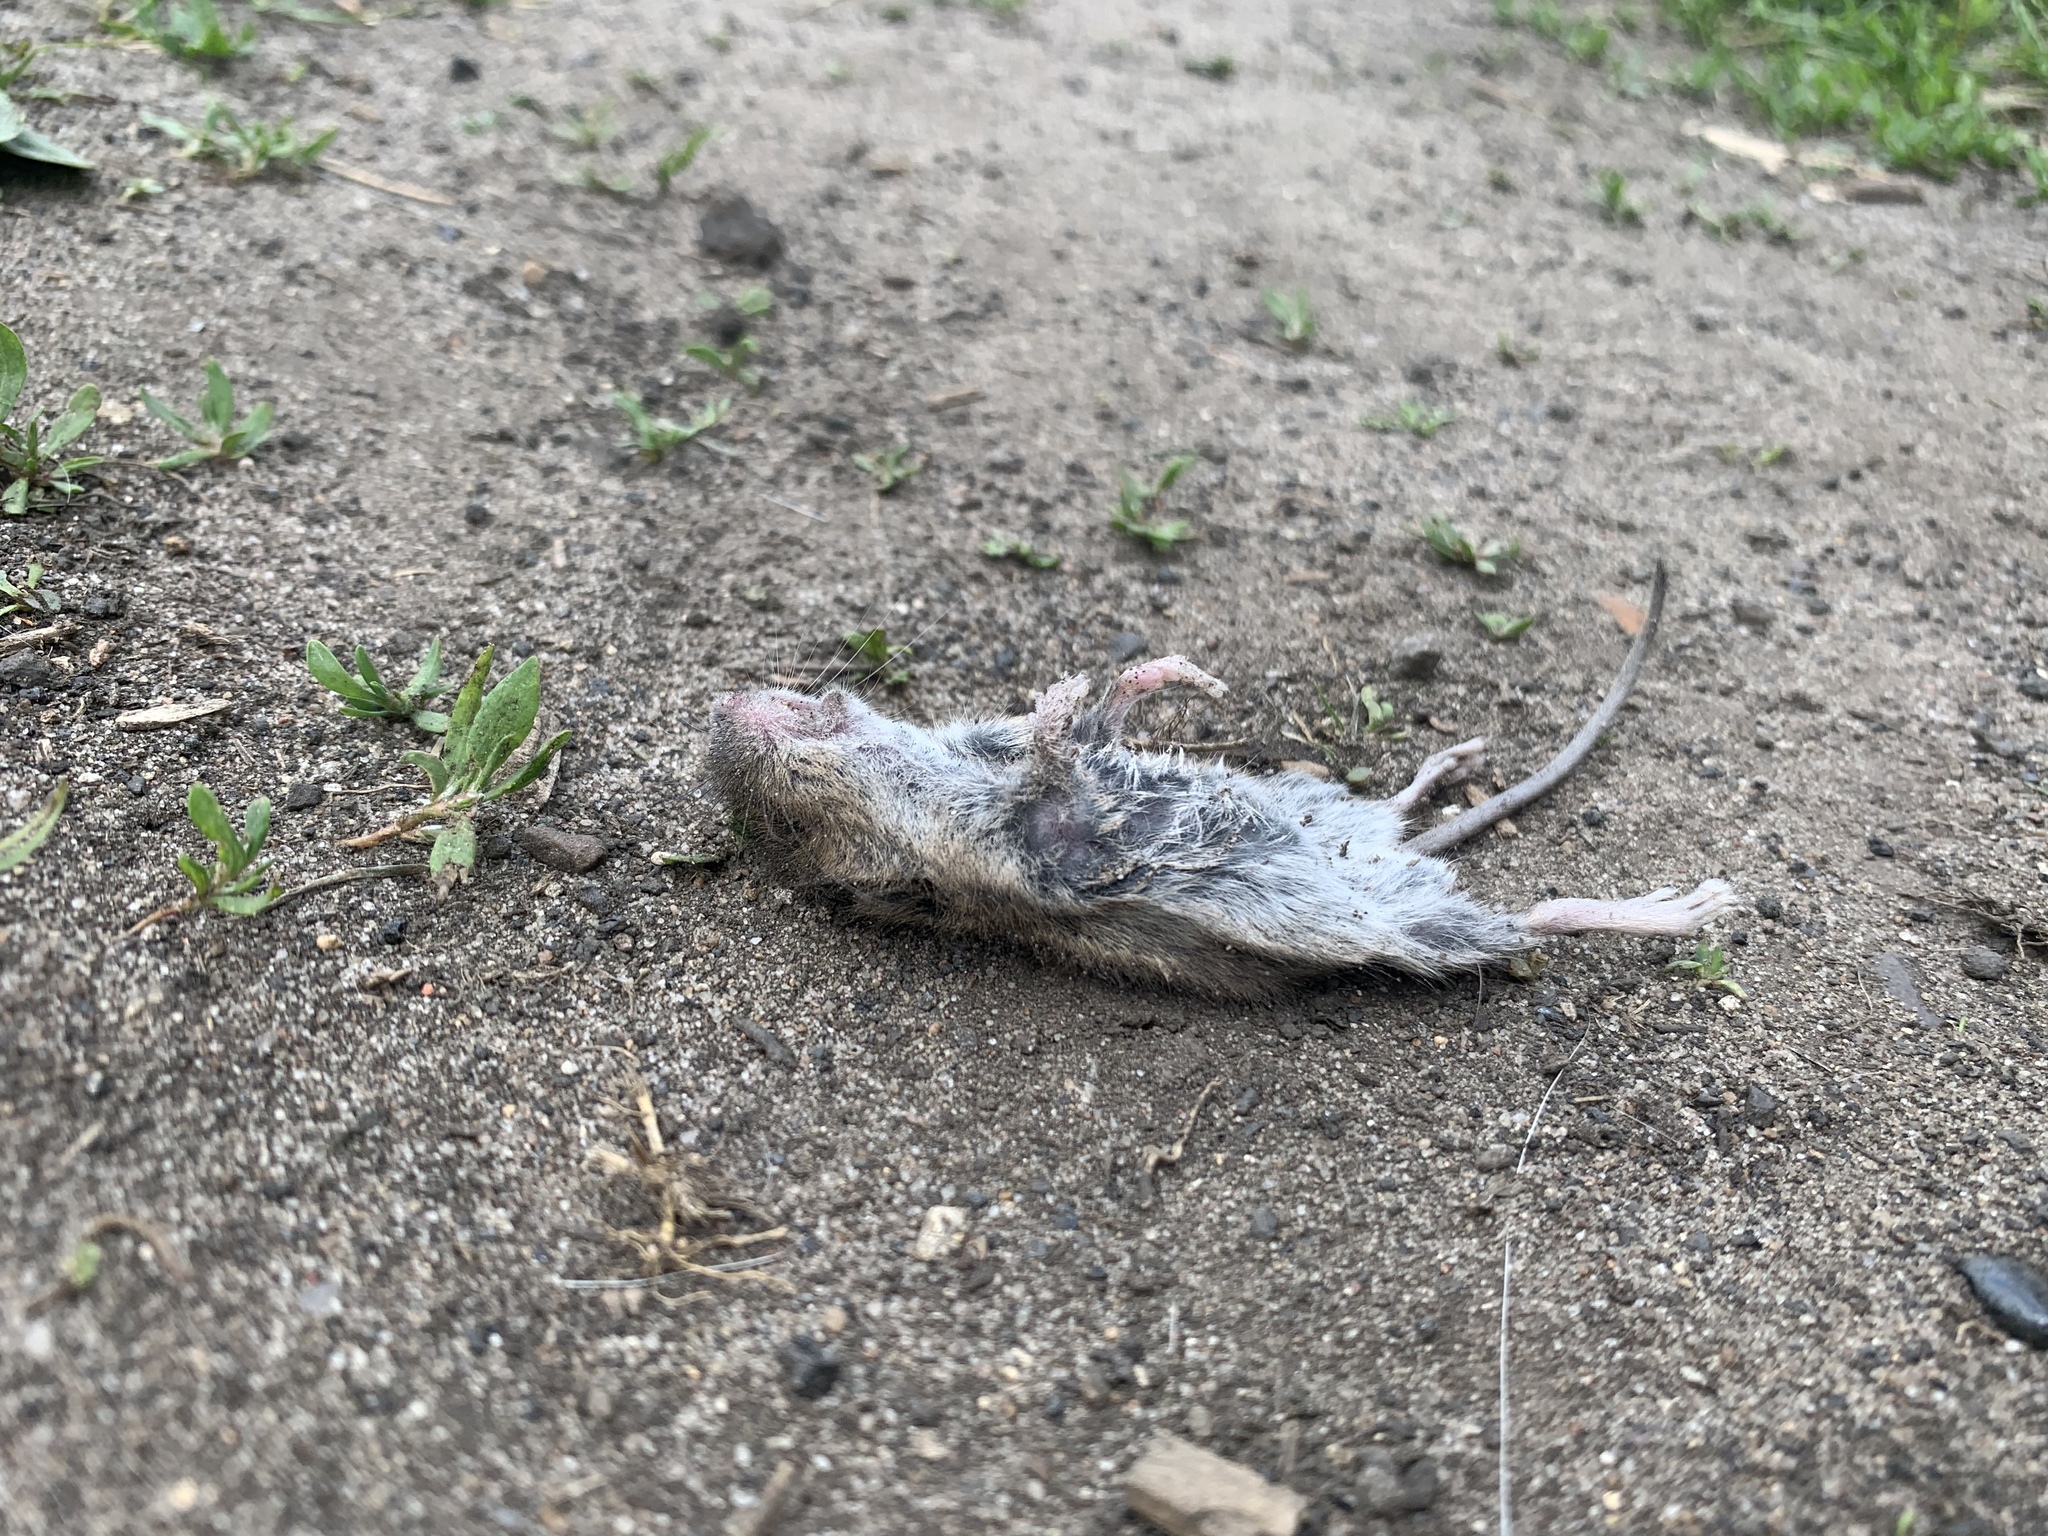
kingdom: Animalia
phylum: Chordata
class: Mammalia
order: Rodentia
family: Muridae
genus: Apodemus
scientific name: Apodemus sylvaticus
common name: Wood mouse
